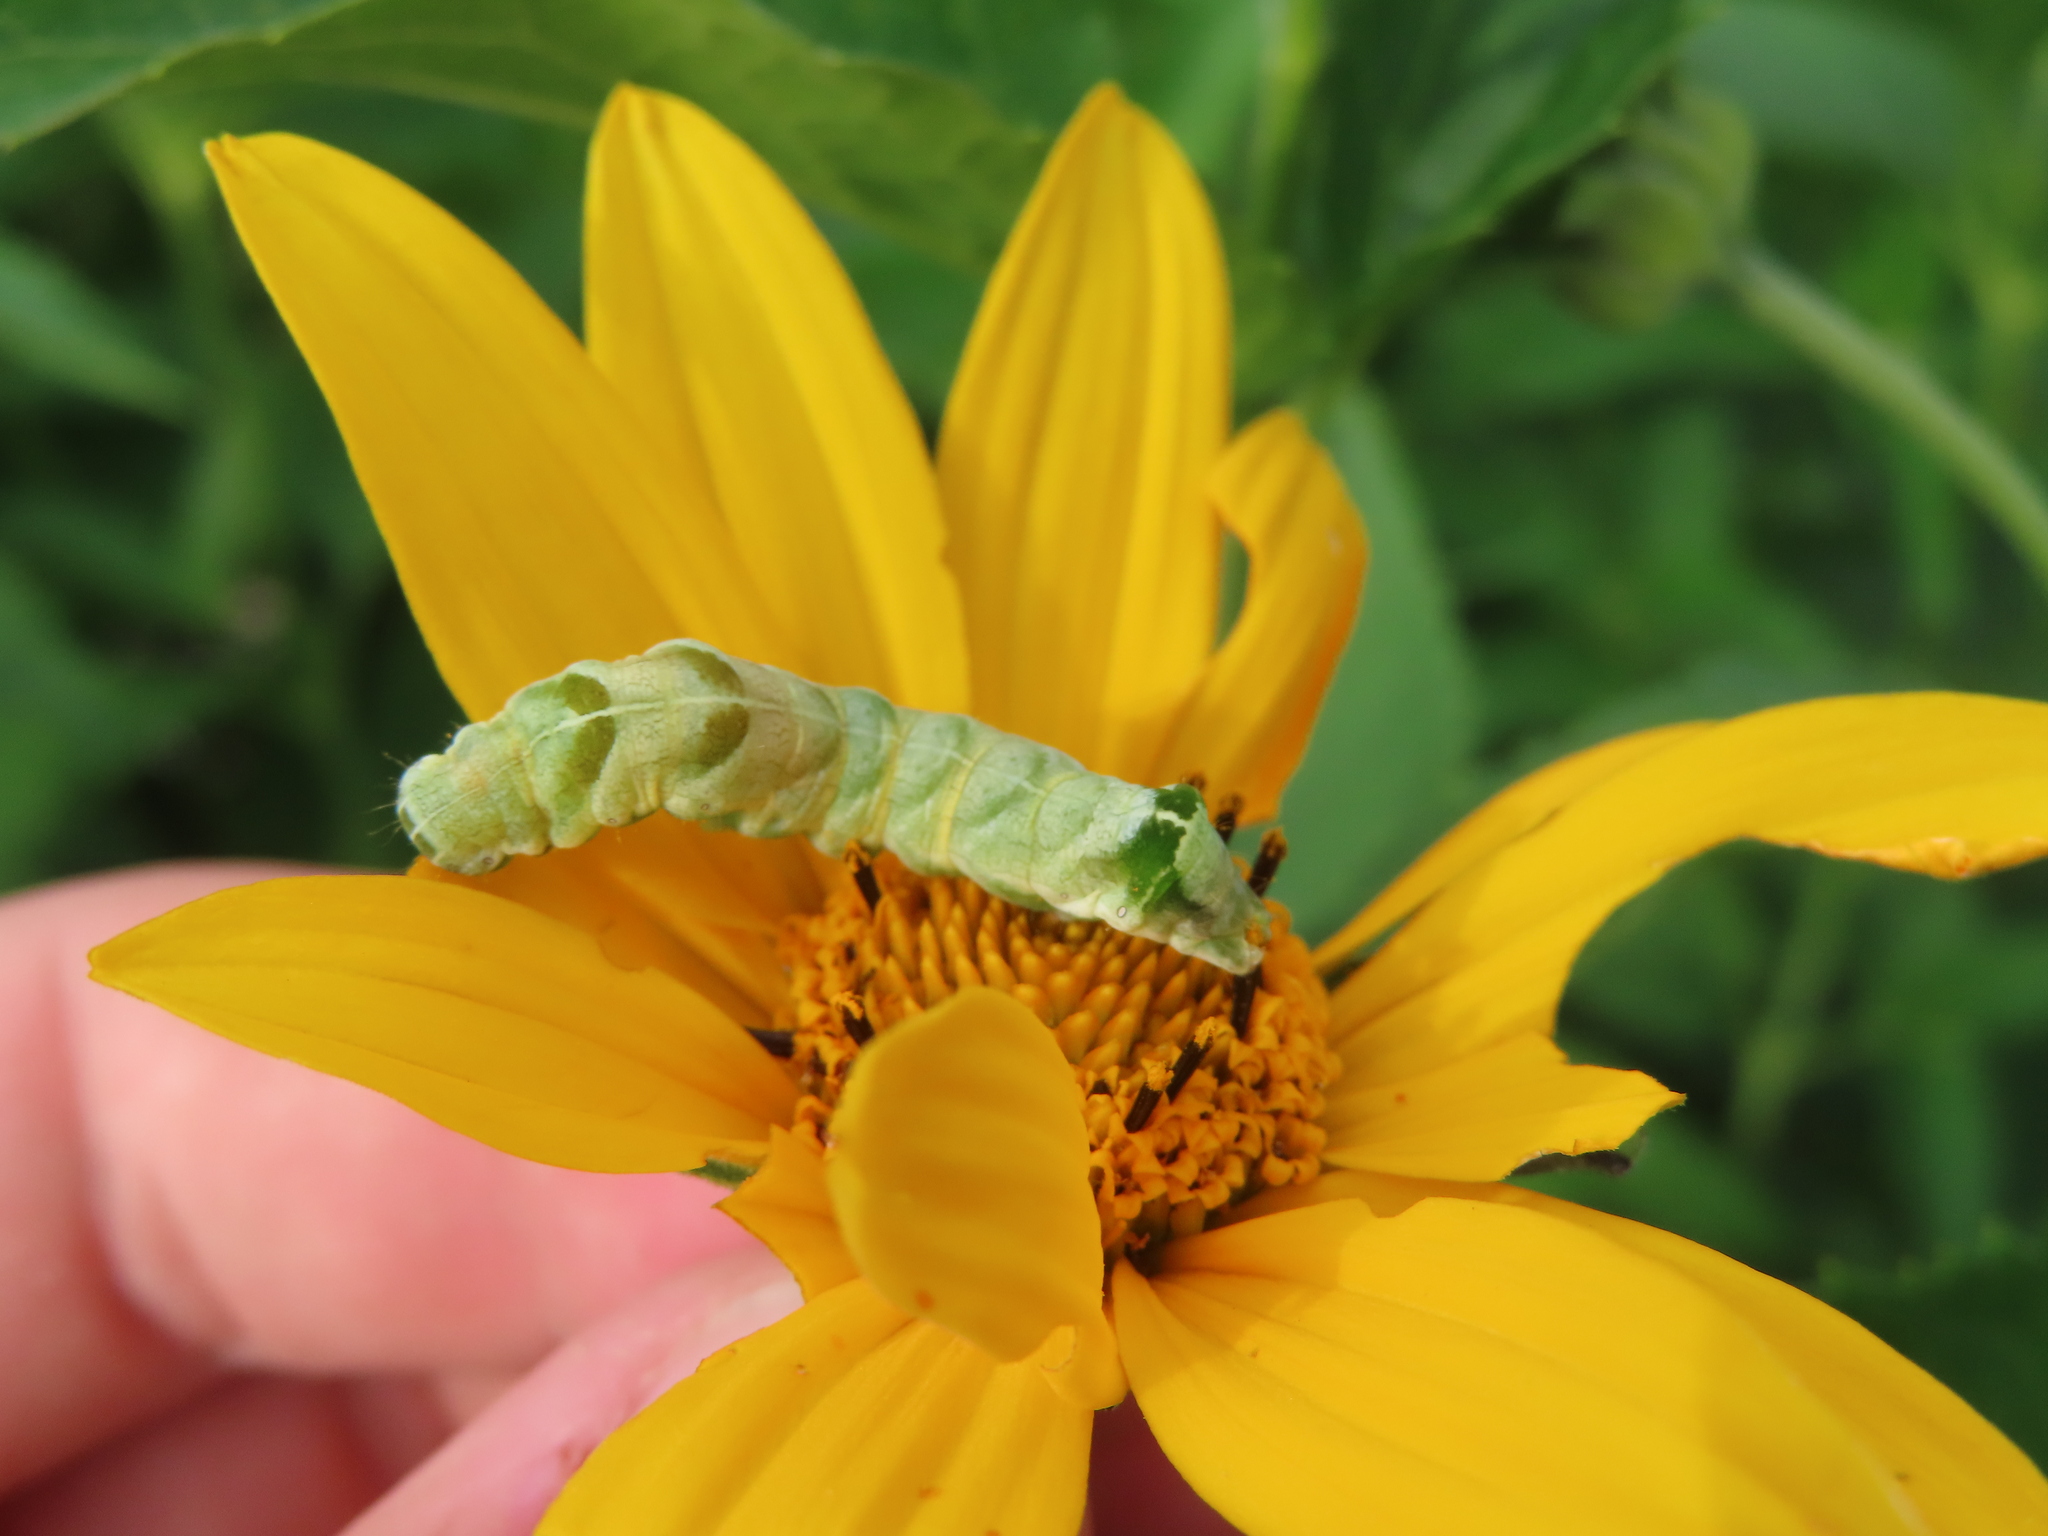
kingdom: Animalia
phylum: Arthropoda
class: Insecta
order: Lepidoptera
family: Noctuidae
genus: Melanchra
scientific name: Melanchra adjuncta
